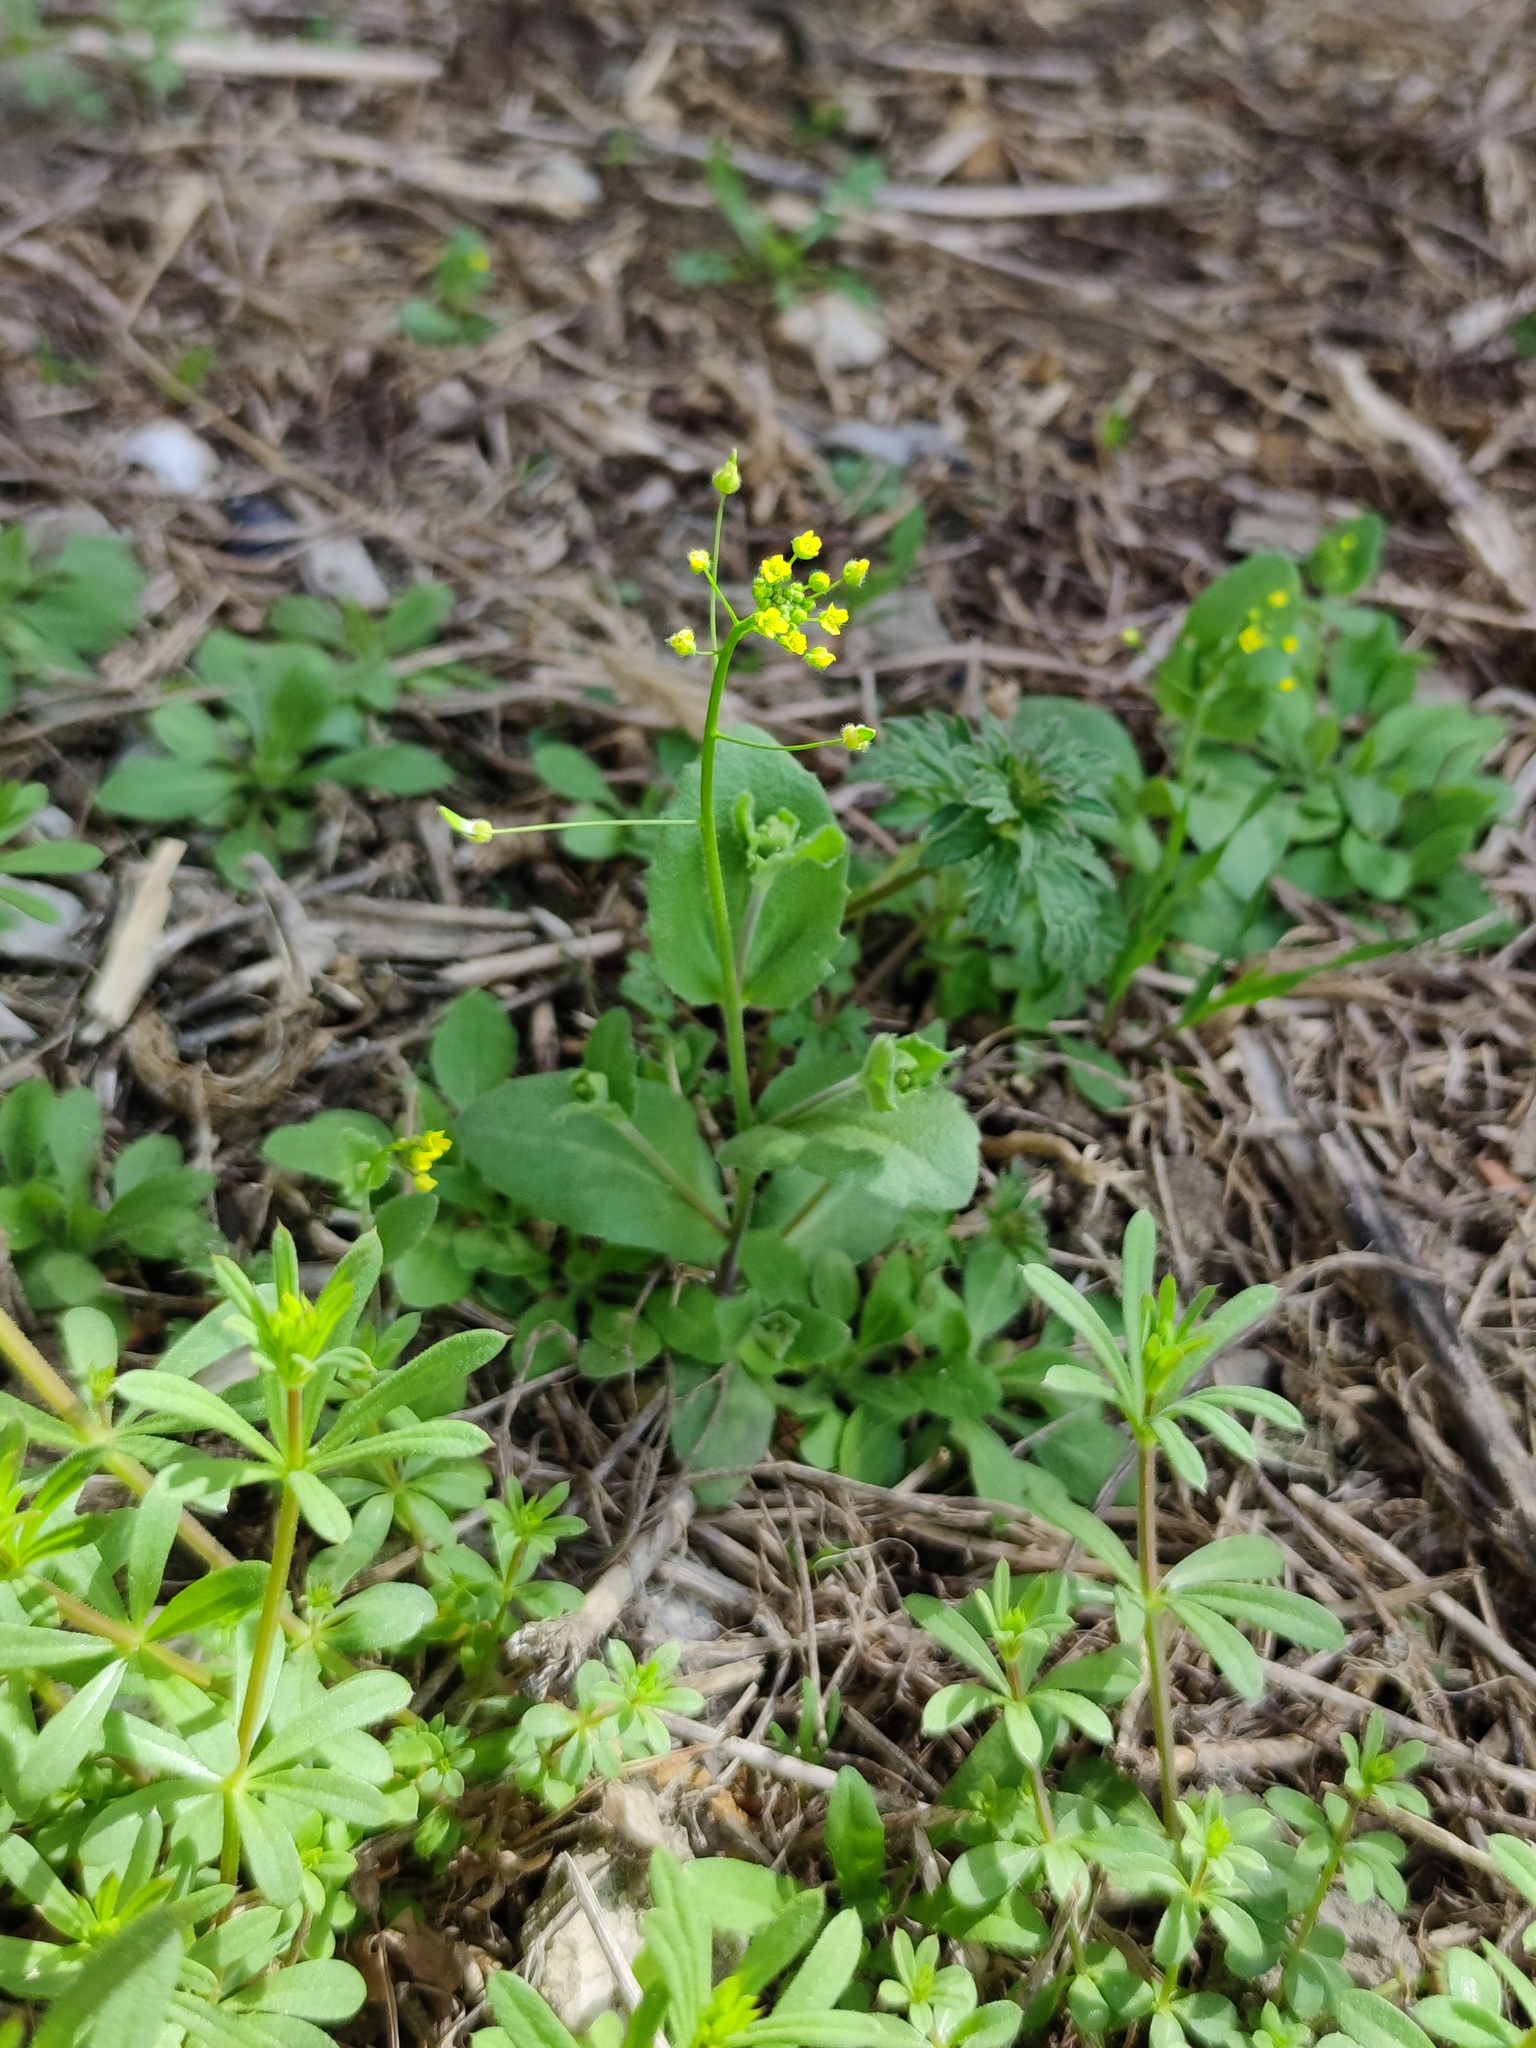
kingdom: Plantae
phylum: Tracheophyta
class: Magnoliopsida
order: Brassicales
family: Brassicaceae
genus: Draba
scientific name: Draba nemorosa
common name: Wood whitlow-grass
